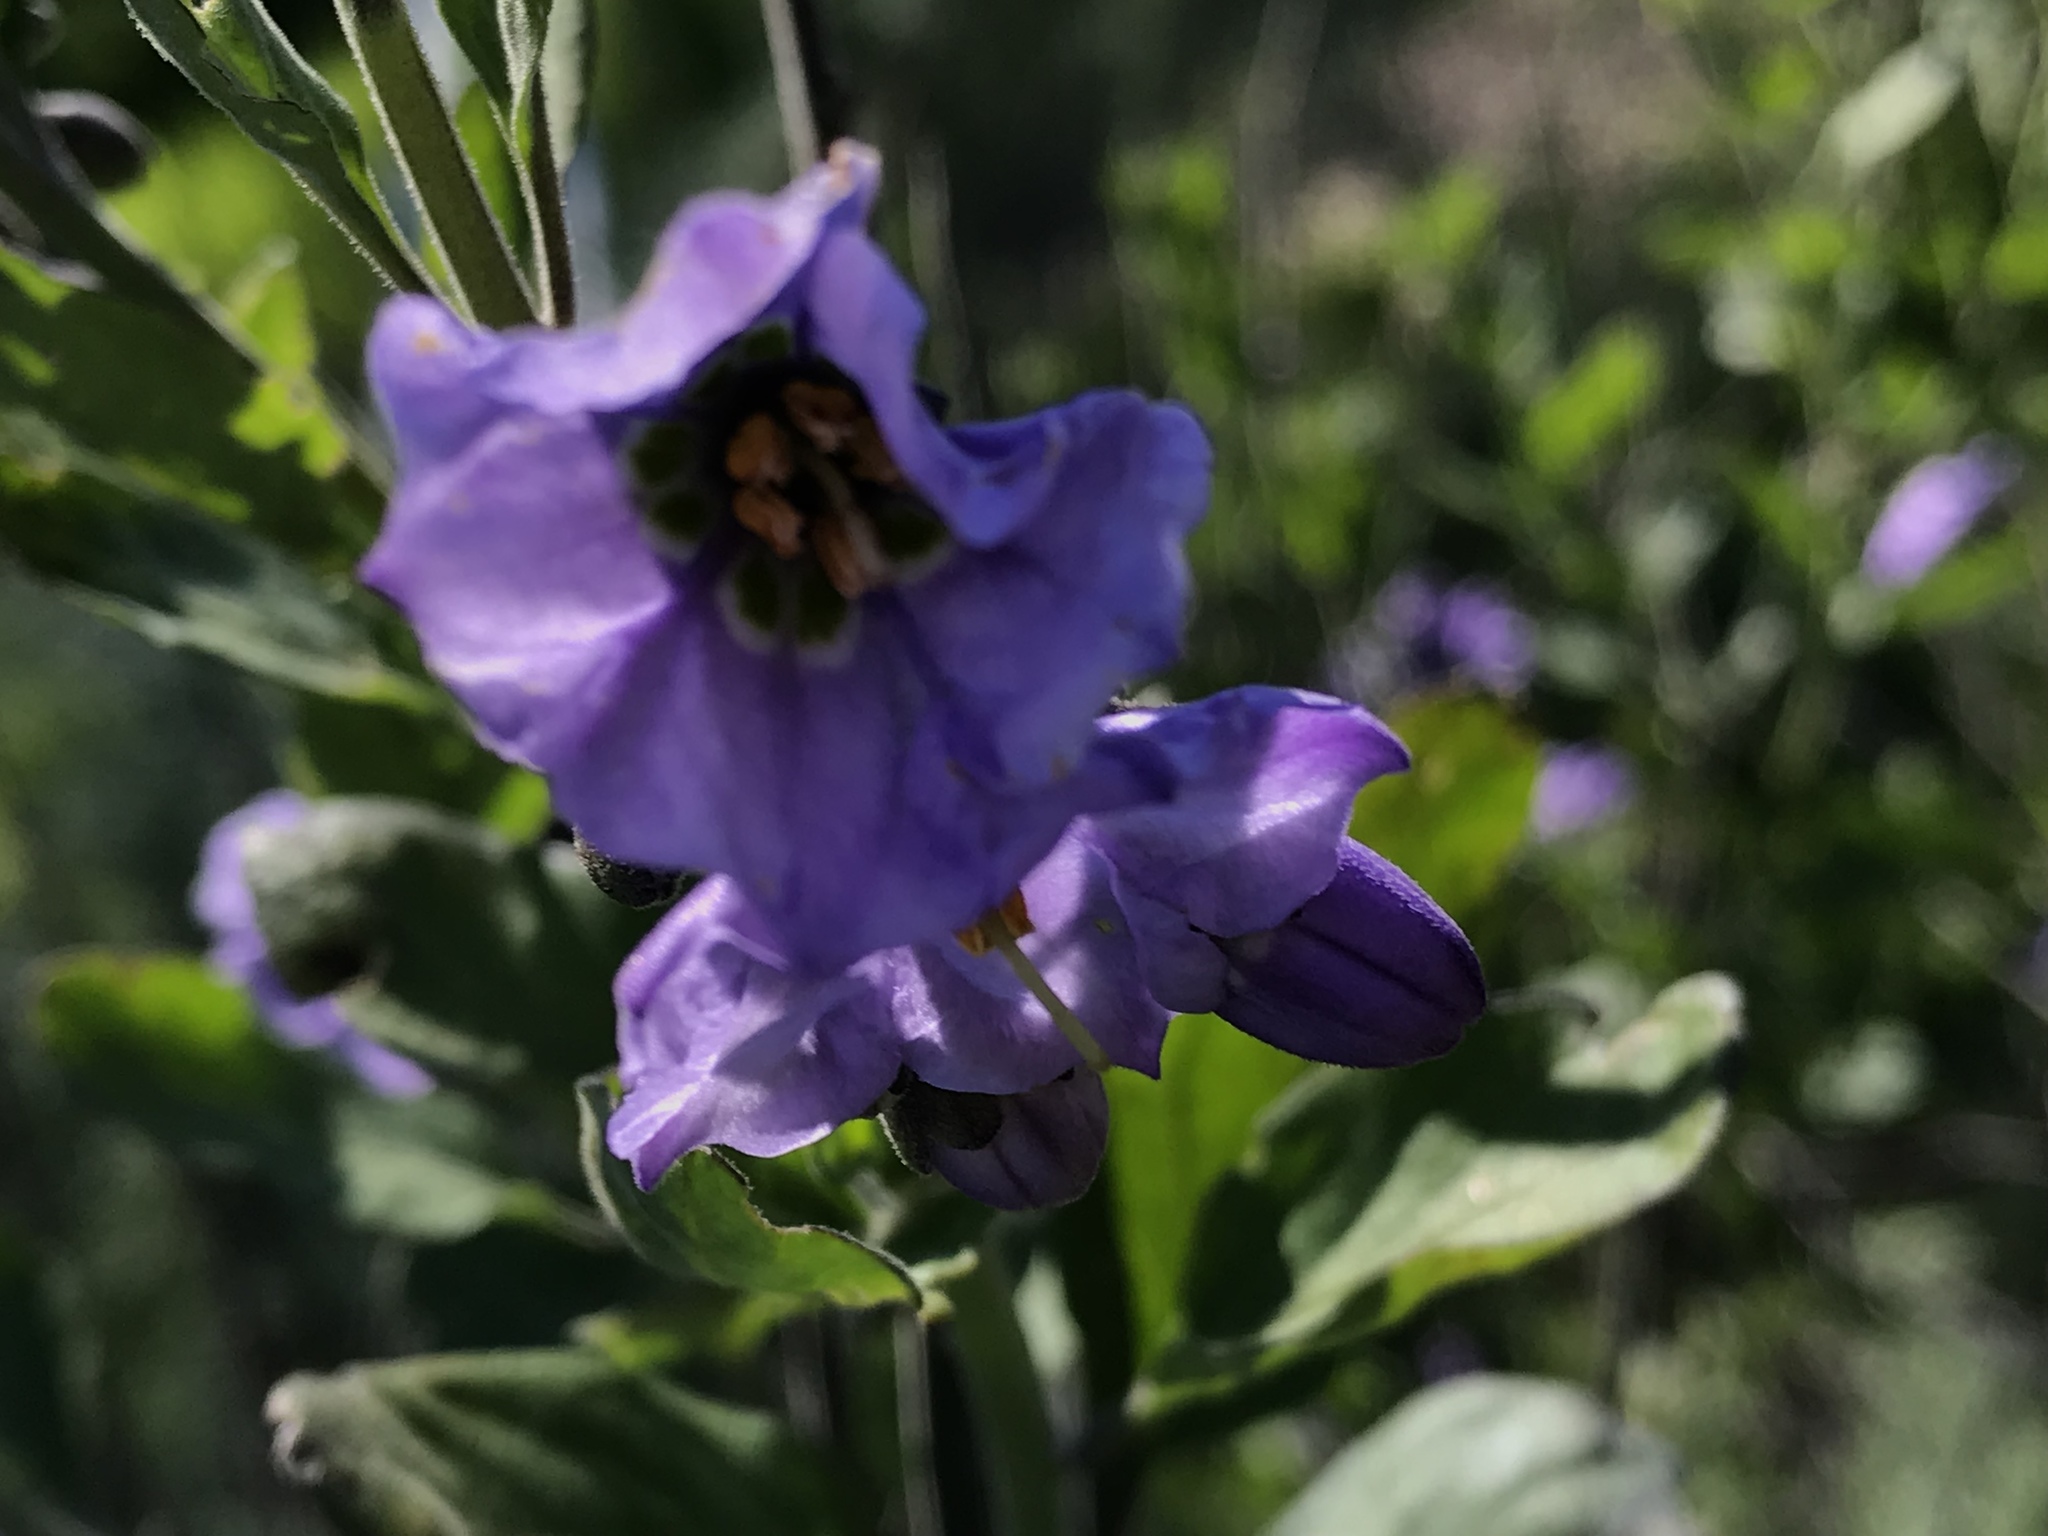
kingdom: Plantae
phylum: Tracheophyta
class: Magnoliopsida
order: Solanales
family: Solanaceae
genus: Solanum
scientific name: Solanum umbelliferum
